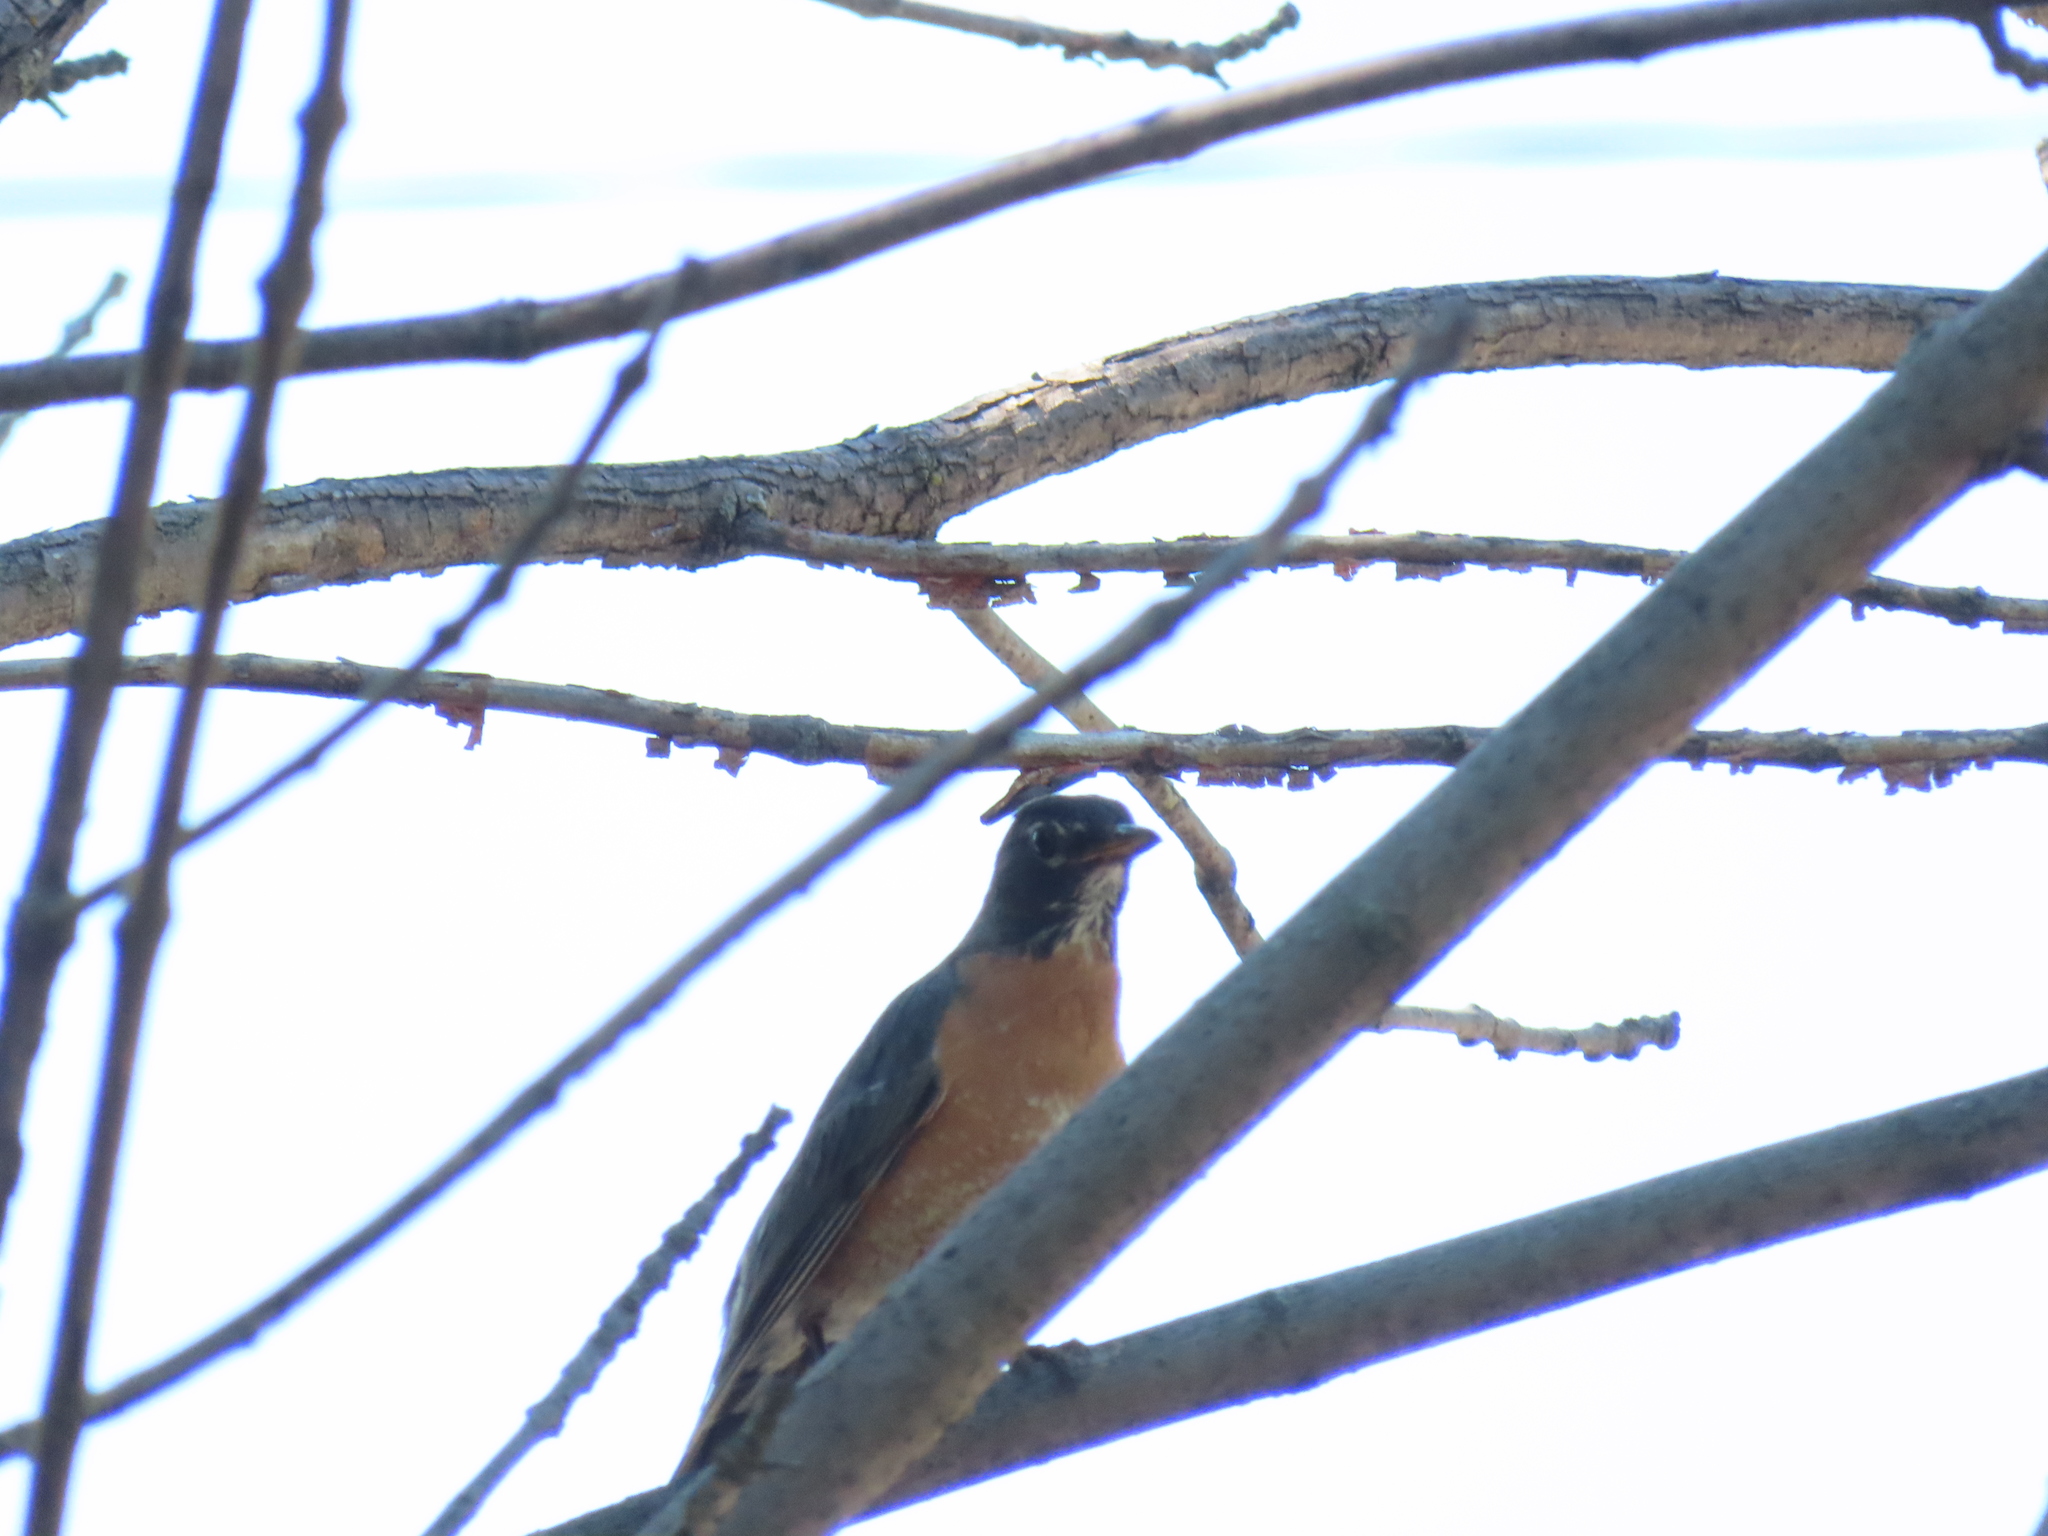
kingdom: Animalia
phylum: Chordata
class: Aves
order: Passeriformes
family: Turdidae
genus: Turdus
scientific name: Turdus migratorius
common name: American robin
